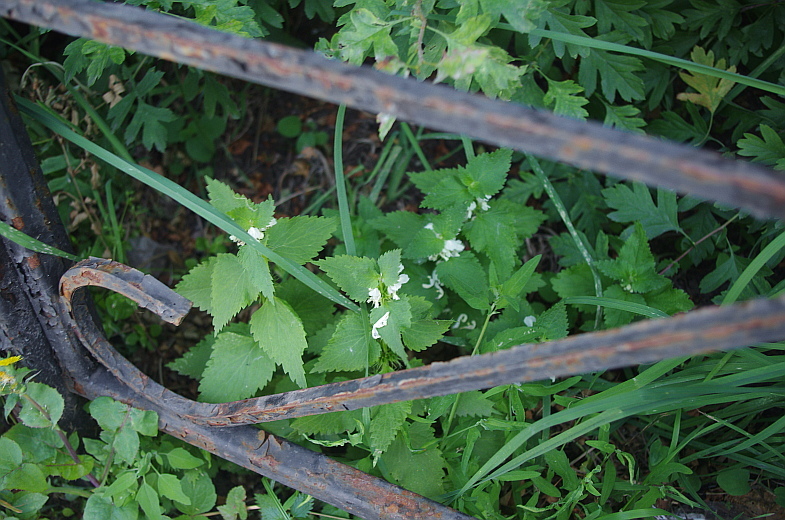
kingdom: Plantae
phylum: Tracheophyta
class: Magnoliopsida
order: Lamiales
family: Lamiaceae
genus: Lamium
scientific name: Lamium album
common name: White dead-nettle
